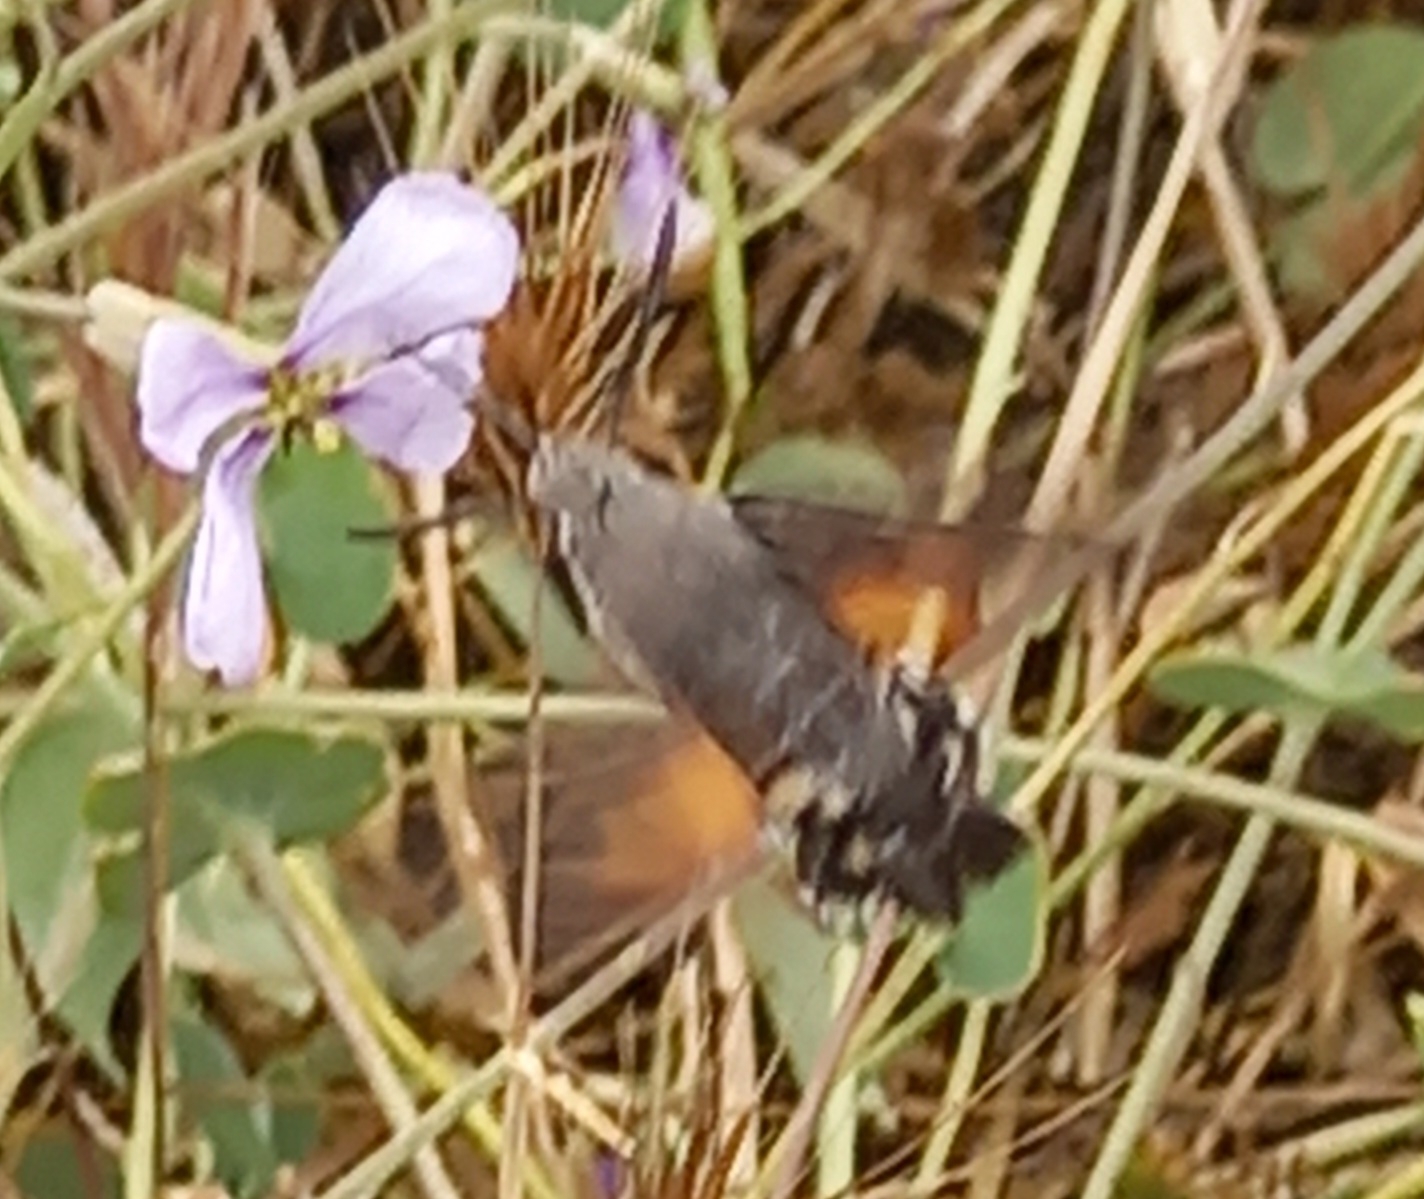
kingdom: Animalia
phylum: Arthropoda
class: Insecta
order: Lepidoptera
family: Sphingidae
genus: Macroglossum
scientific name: Macroglossum stellatarum
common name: Humming-bird hawk-moth
